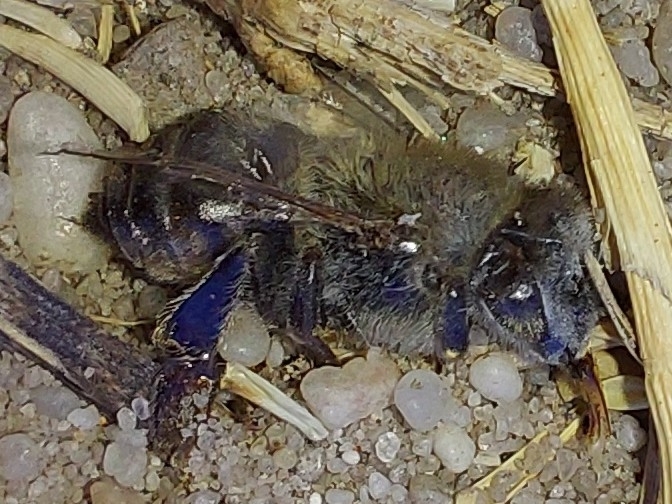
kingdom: Animalia
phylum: Arthropoda
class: Insecta
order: Hymenoptera
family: Apidae
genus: Apis
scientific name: Apis mellifera
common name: Honey bee
